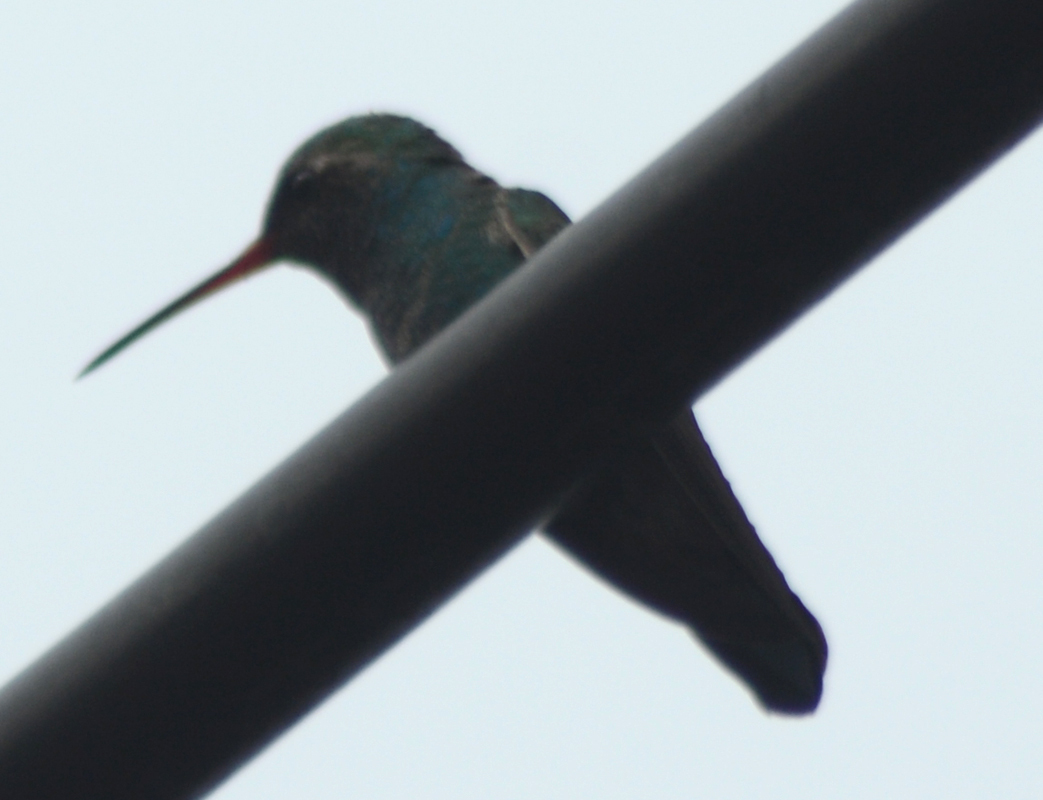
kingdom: Animalia
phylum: Chordata
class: Aves
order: Apodiformes
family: Trochilidae
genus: Cynanthus
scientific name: Cynanthus latirostris
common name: Broad-billed hummingbird
